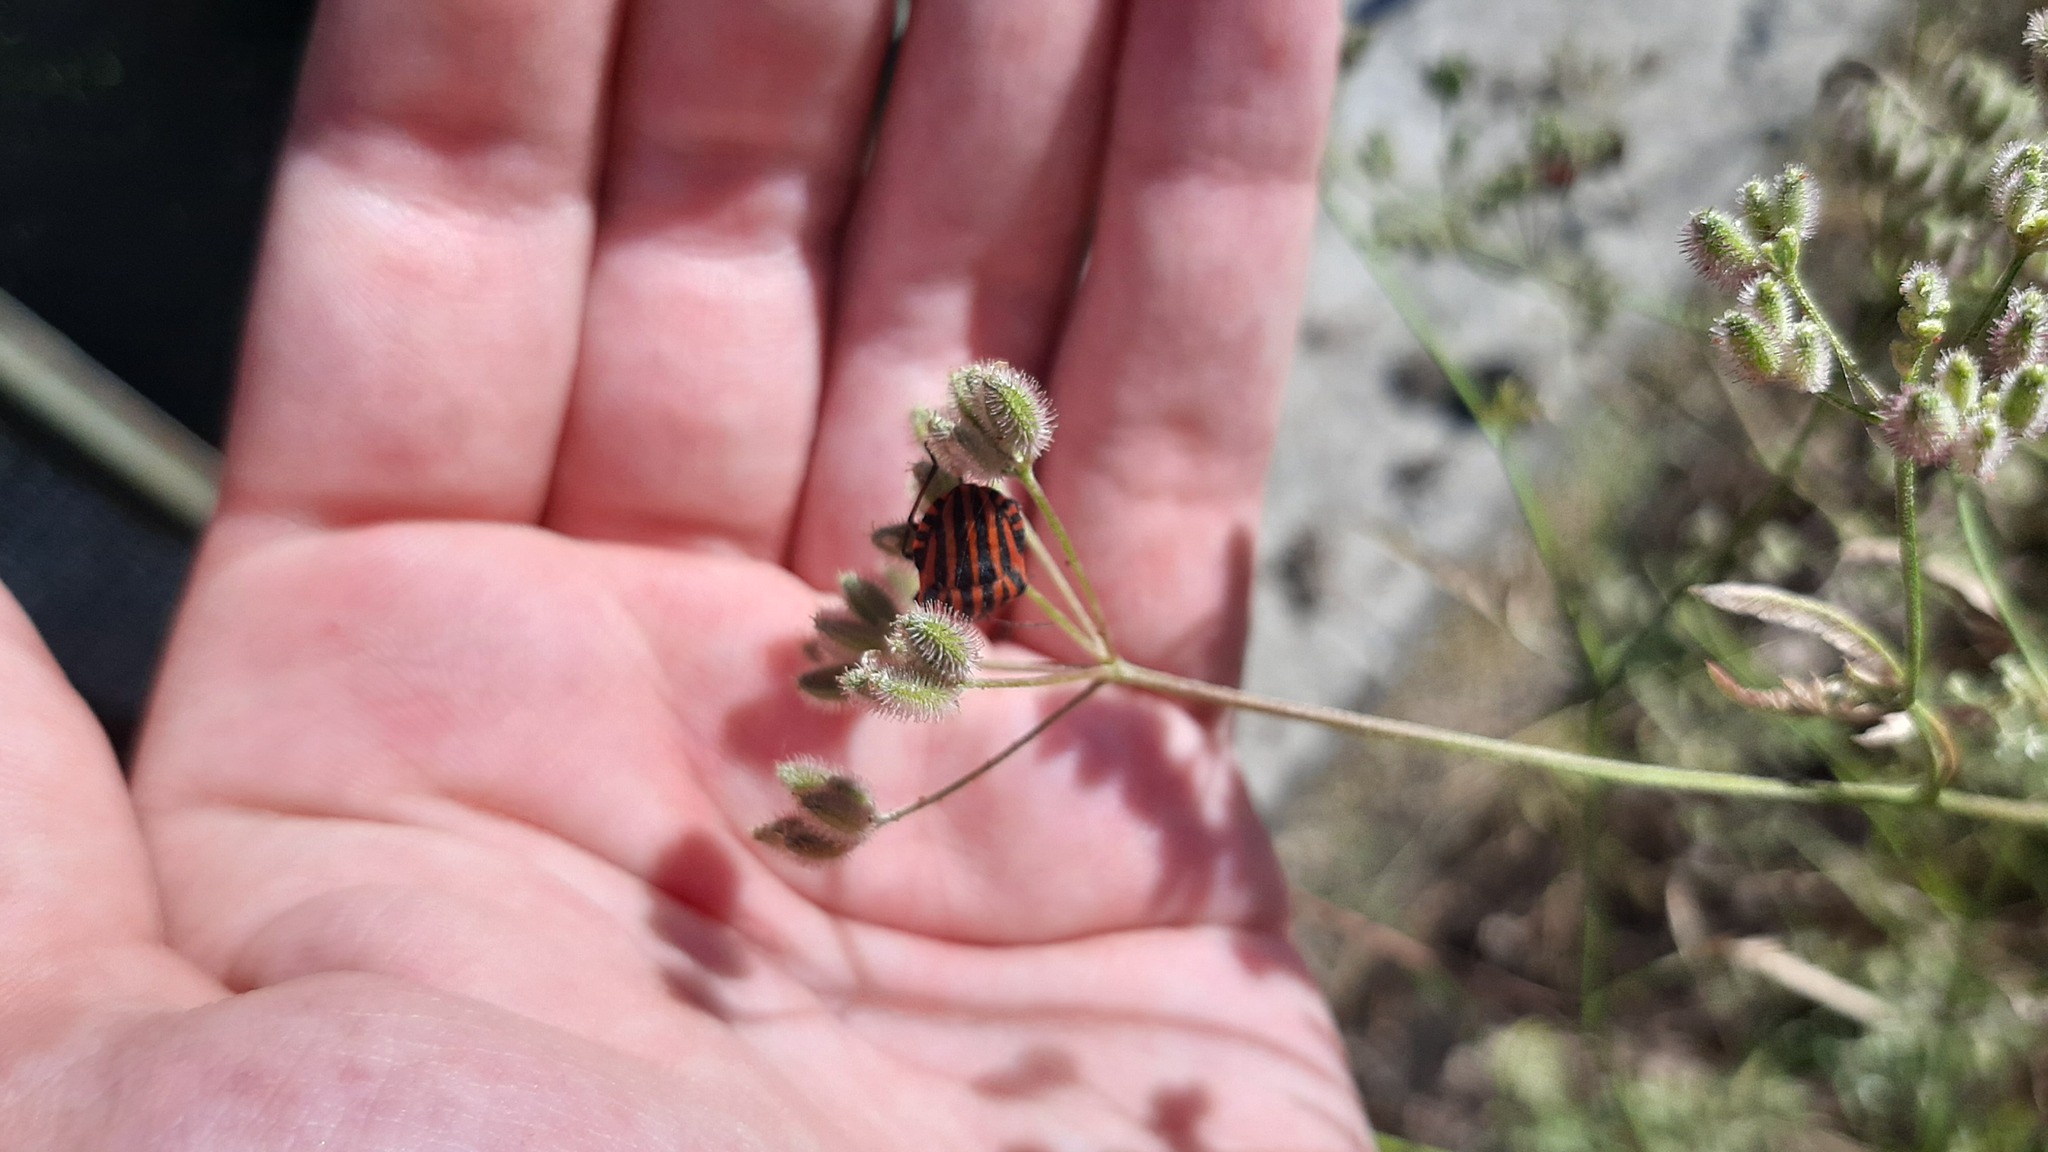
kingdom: Animalia
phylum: Arthropoda
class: Insecta
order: Hemiptera
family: Pentatomidae
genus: Graphosoma
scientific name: Graphosoma italicum
